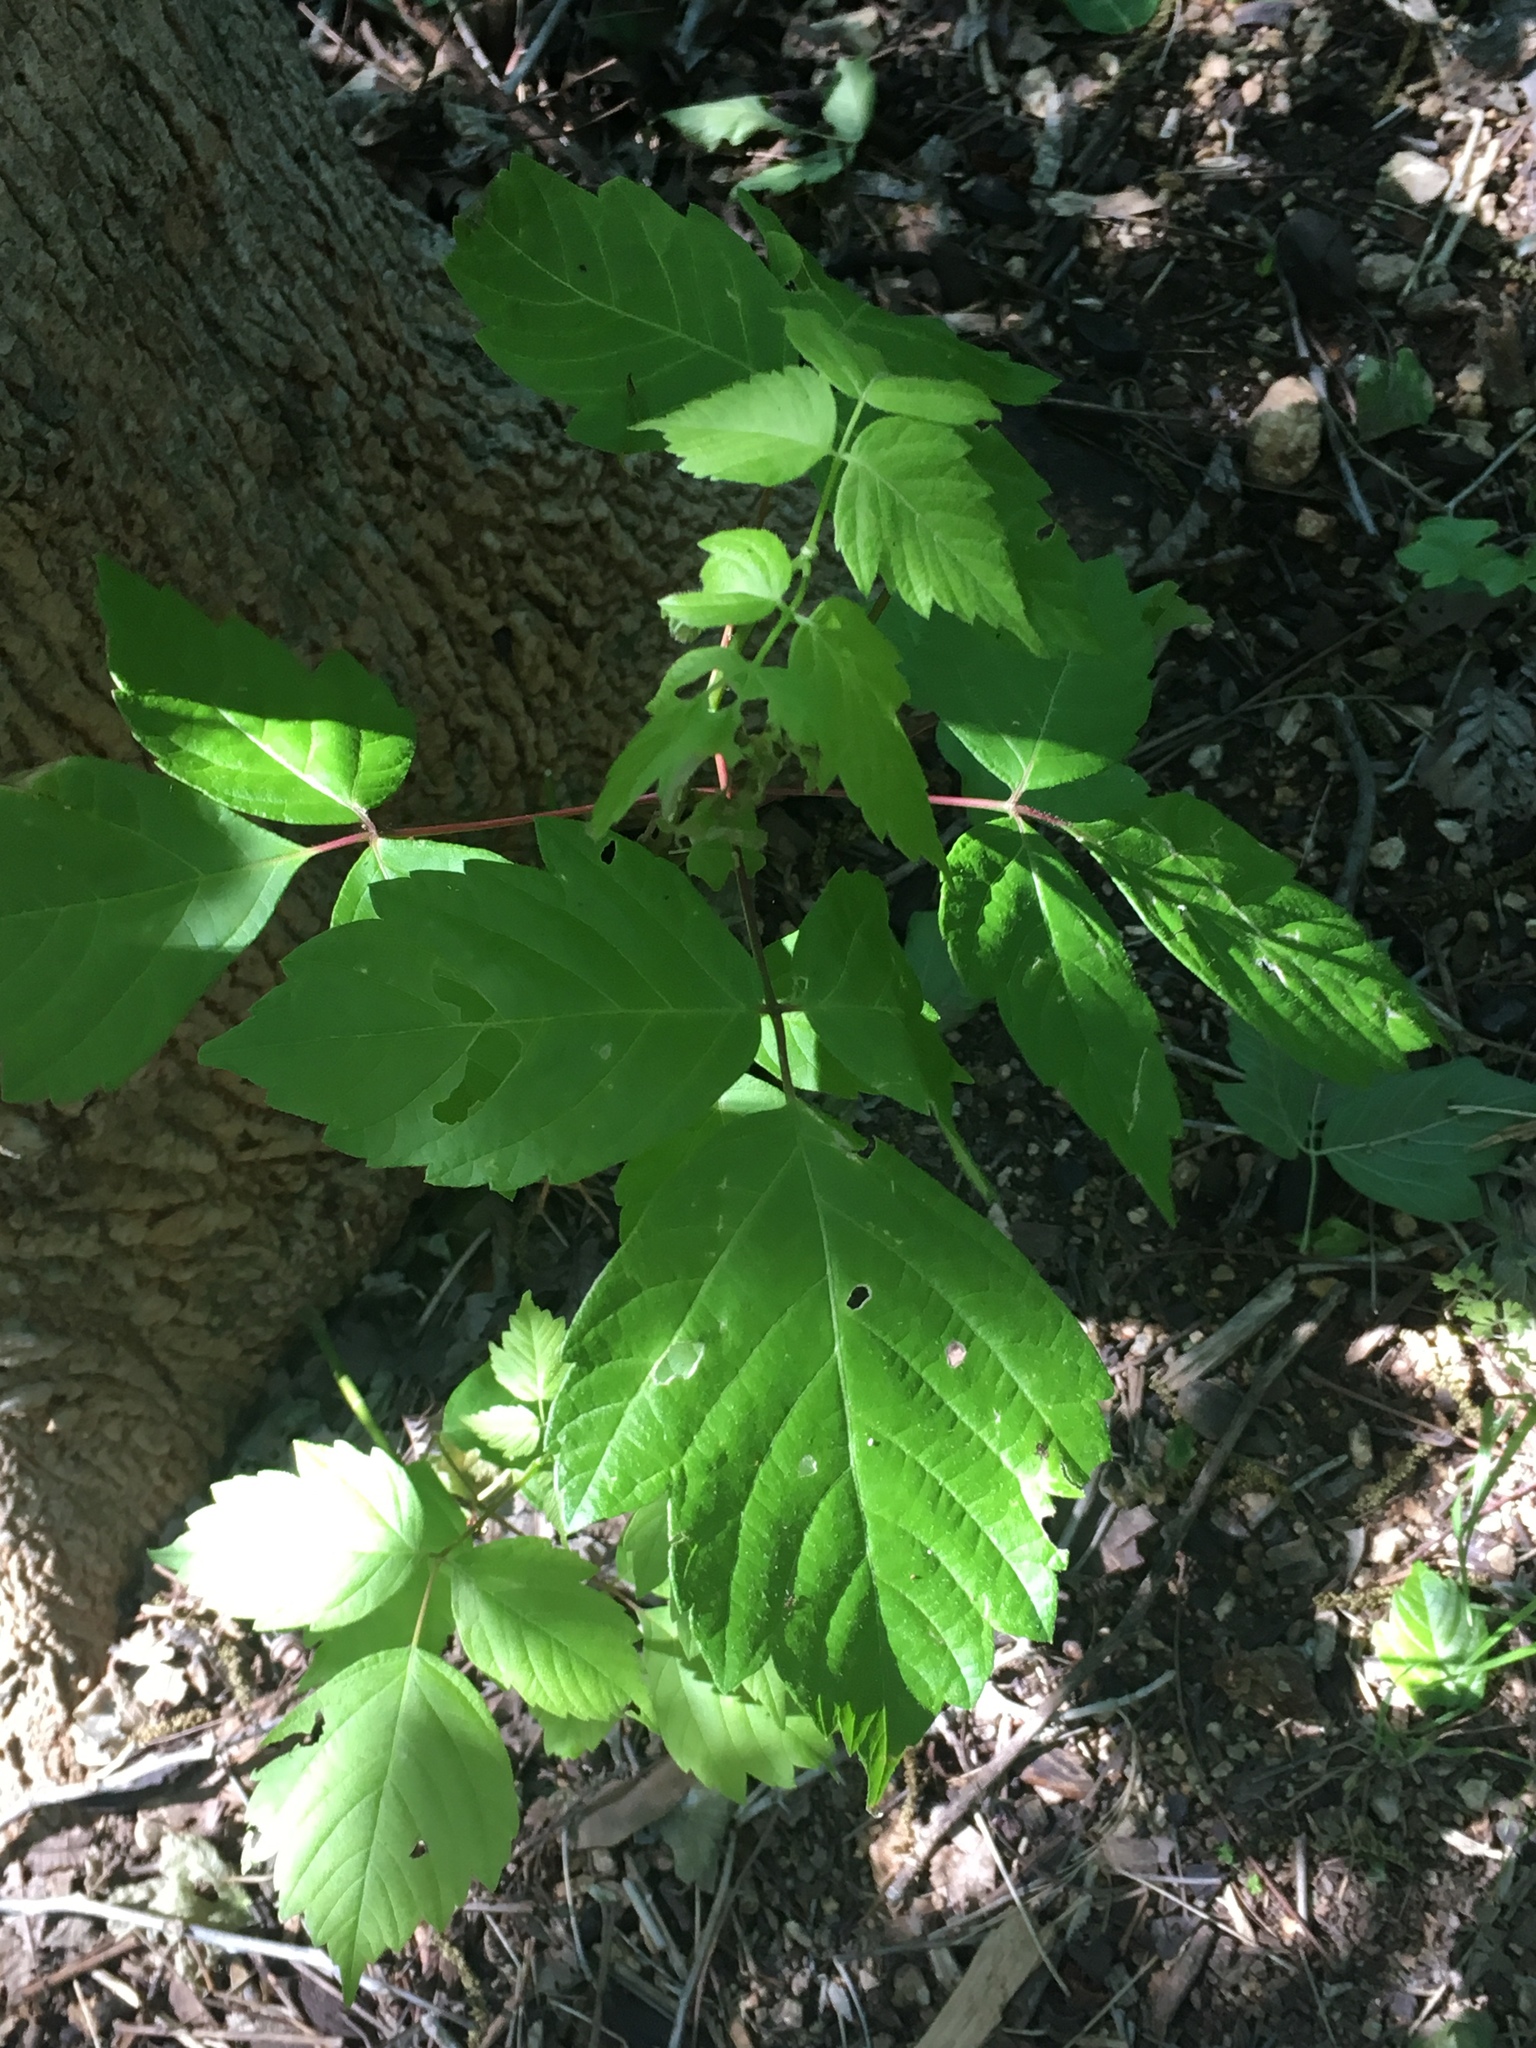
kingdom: Plantae
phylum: Tracheophyta
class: Magnoliopsida
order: Sapindales
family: Sapindaceae
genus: Acer
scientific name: Acer negundo
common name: Ashleaf maple
